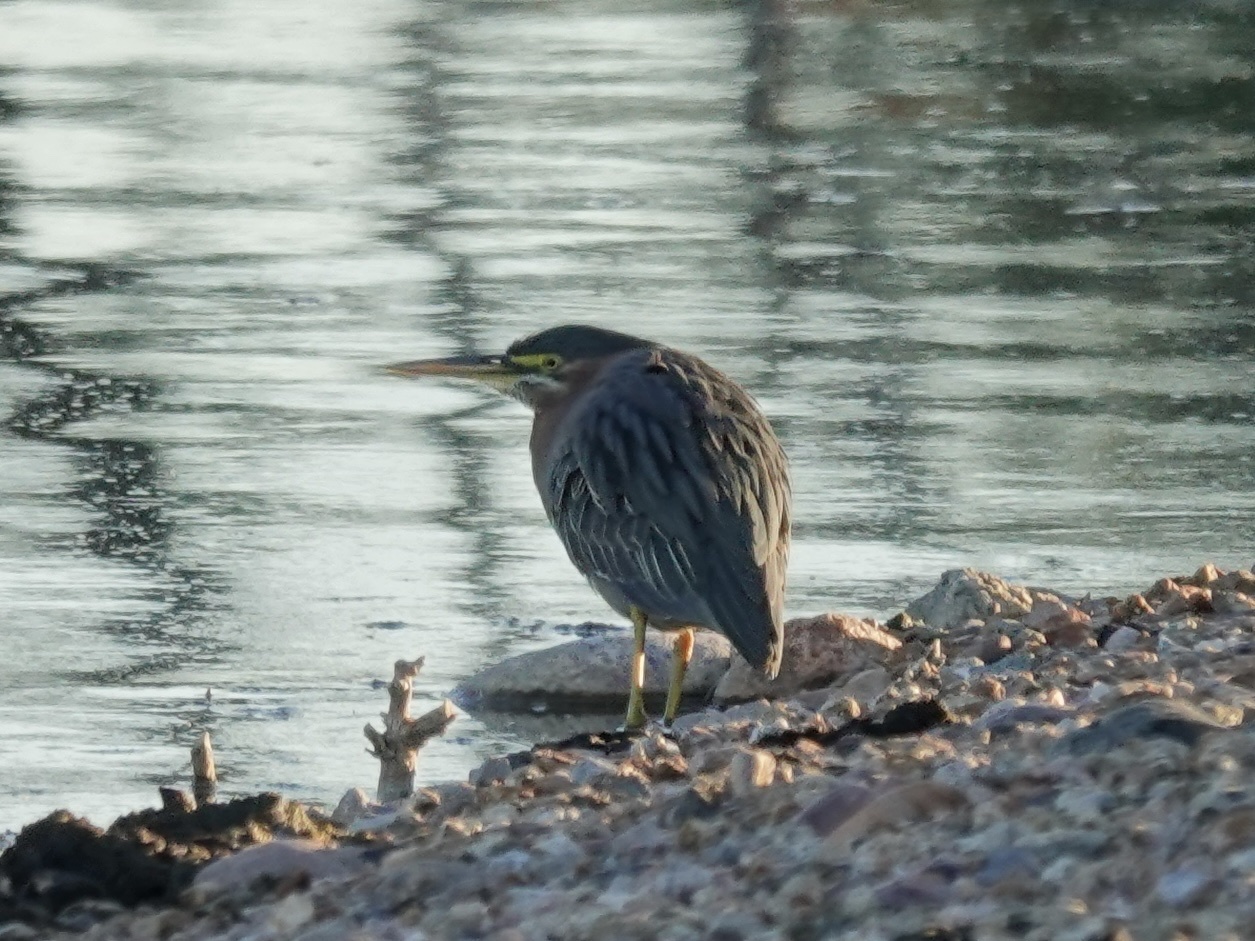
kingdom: Animalia
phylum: Chordata
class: Aves
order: Pelecaniformes
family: Ardeidae
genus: Butorides
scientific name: Butorides virescens
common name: Green heron
